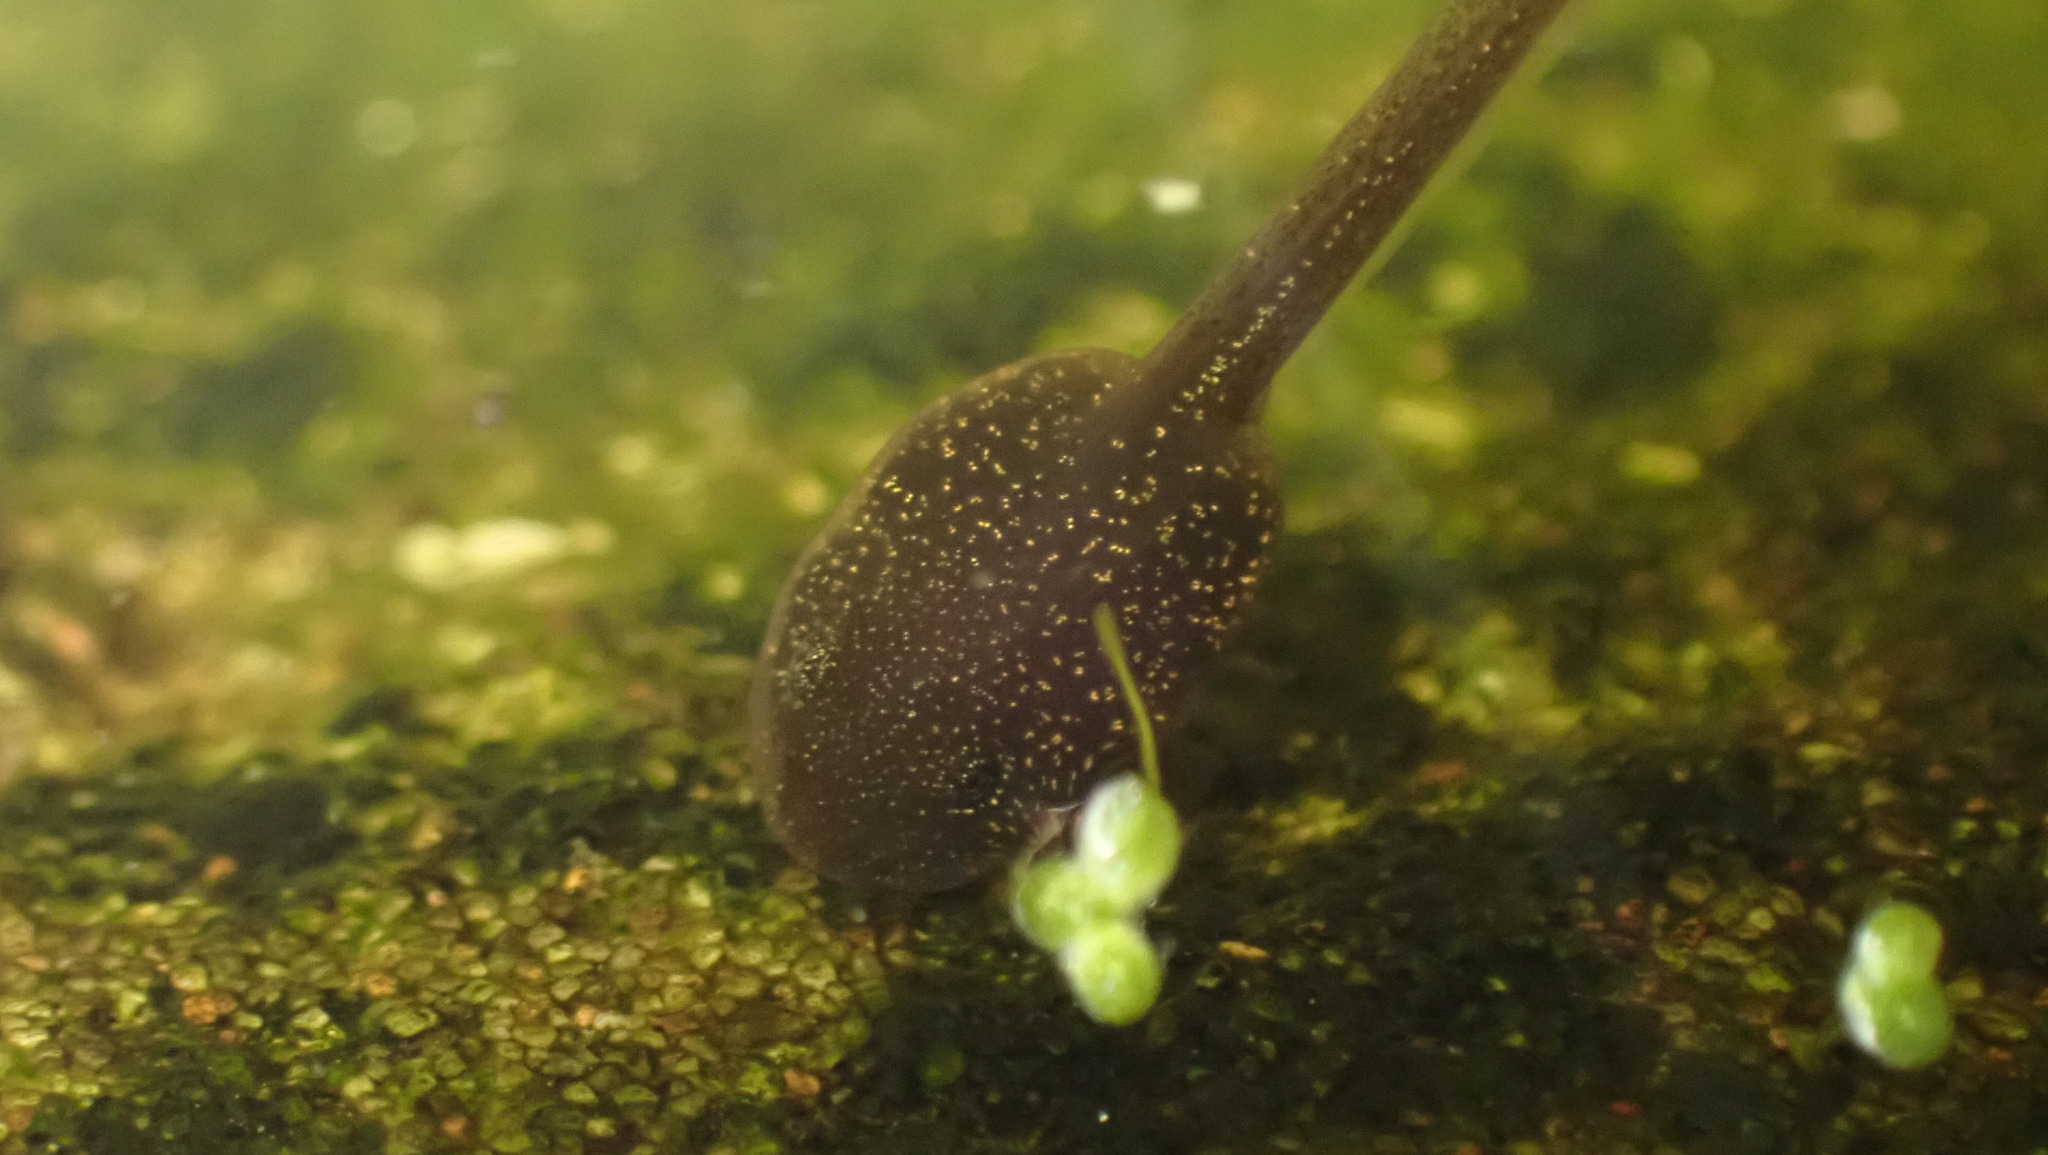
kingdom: Animalia
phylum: Chordata
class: Amphibia
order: Anura
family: Ranidae
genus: Rana
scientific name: Rana temporaria
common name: Common frog
